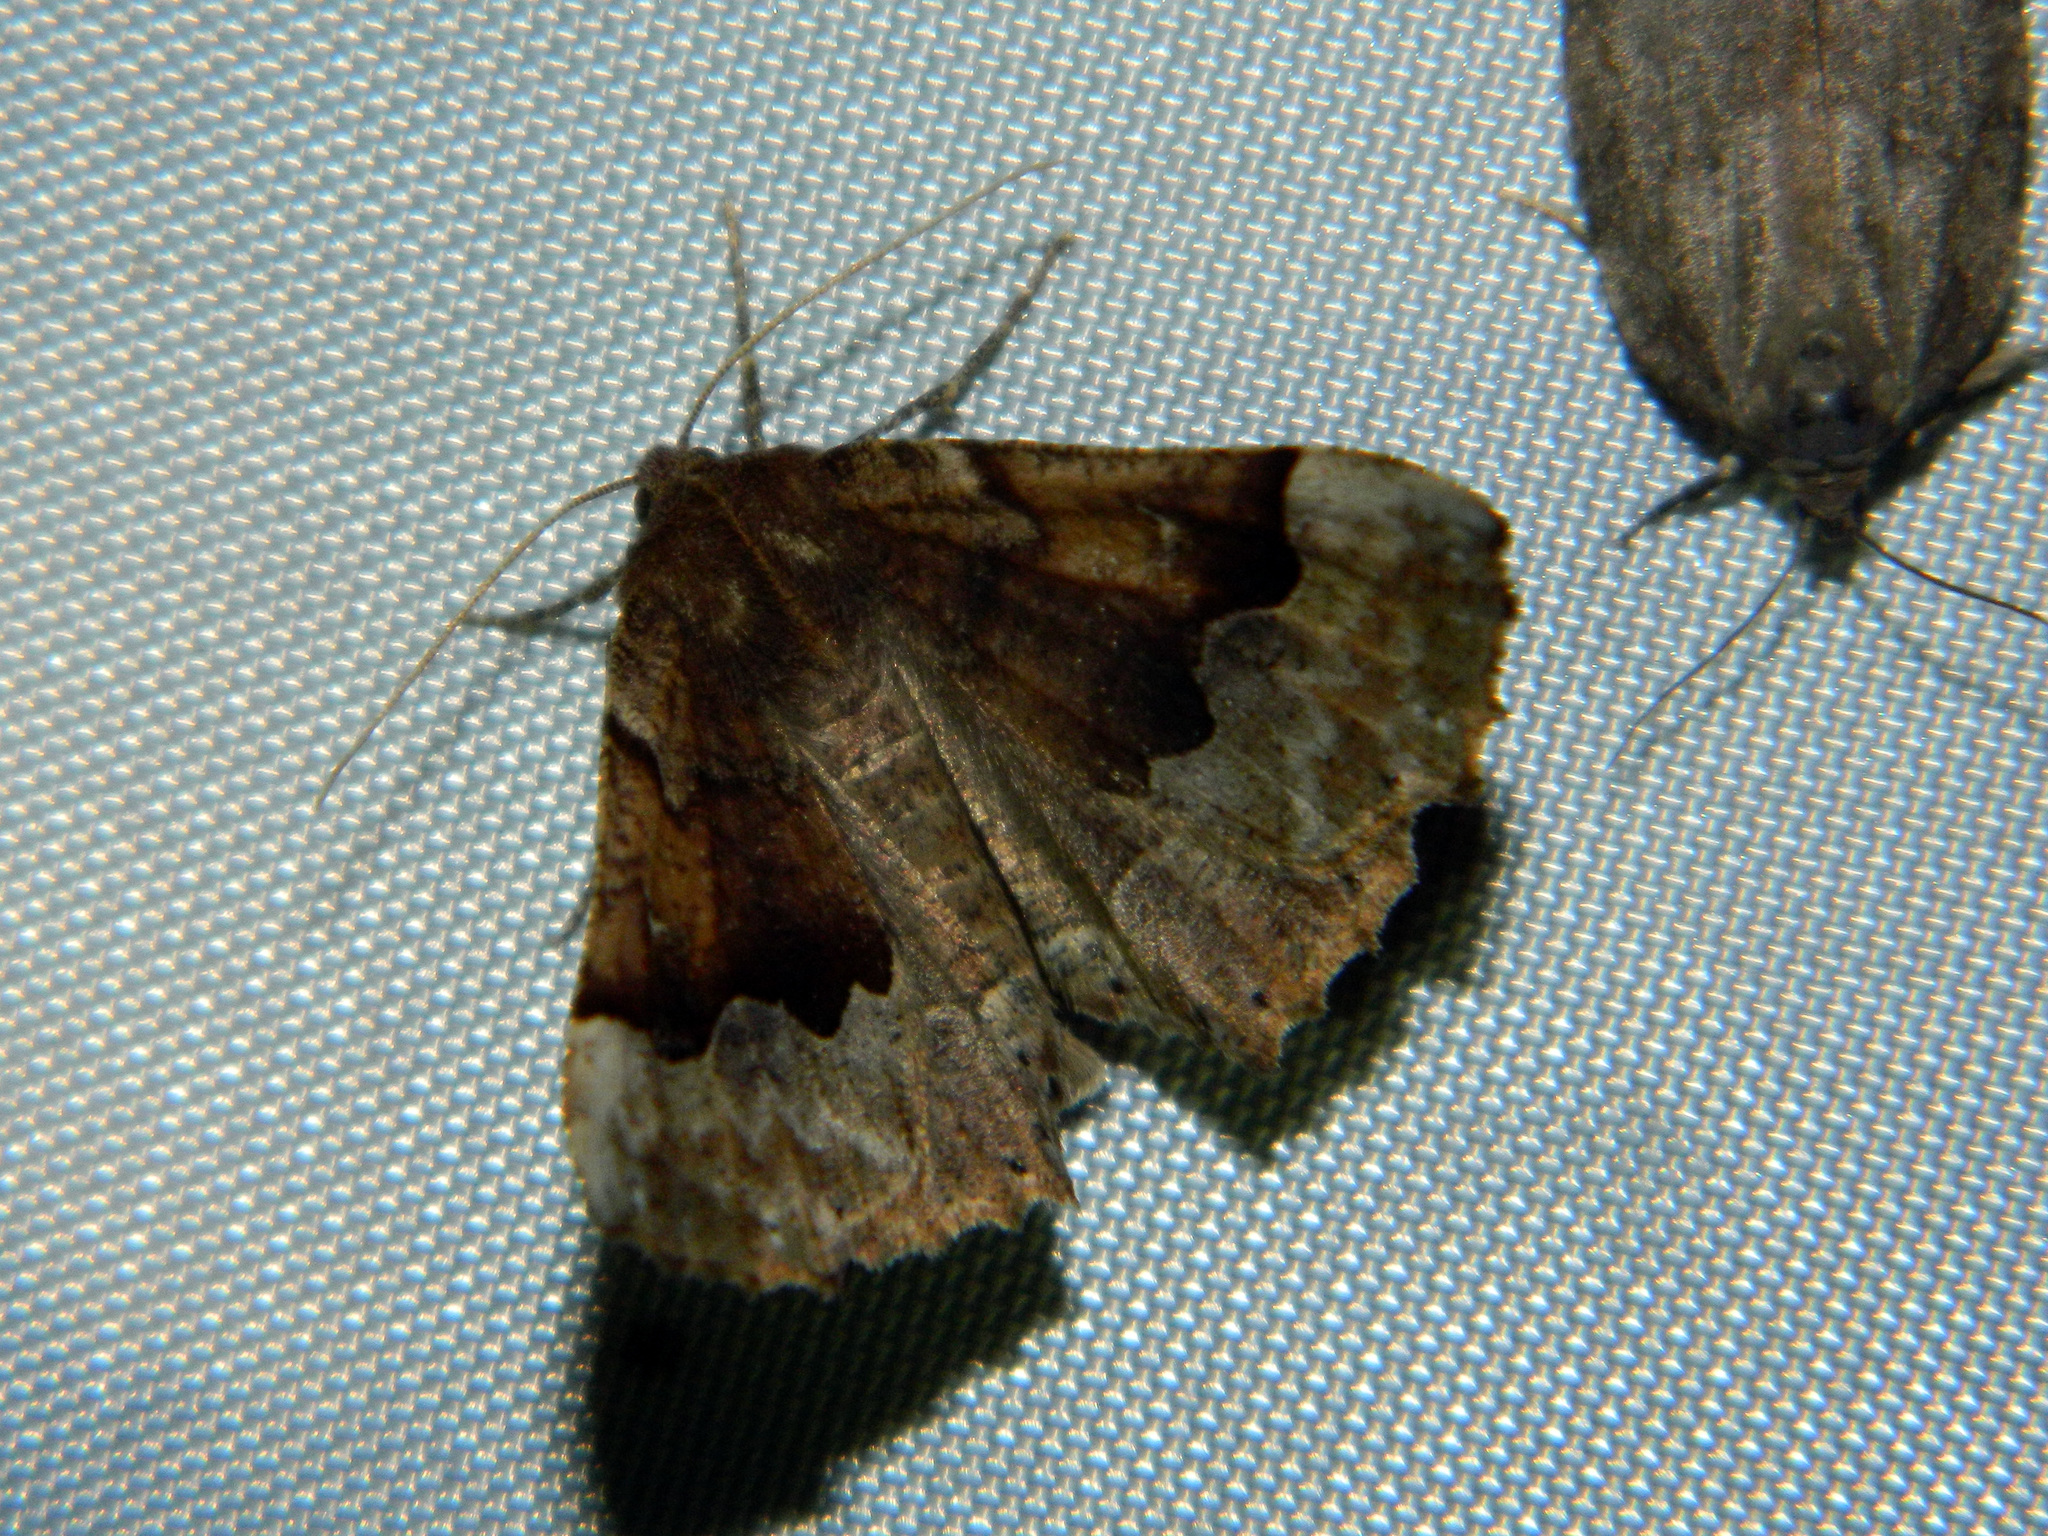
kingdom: Animalia
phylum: Arthropoda
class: Insecta
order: Lepidoptera
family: Geometridae
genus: Pero
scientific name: Pero morrisonaria
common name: Morrison's pero
